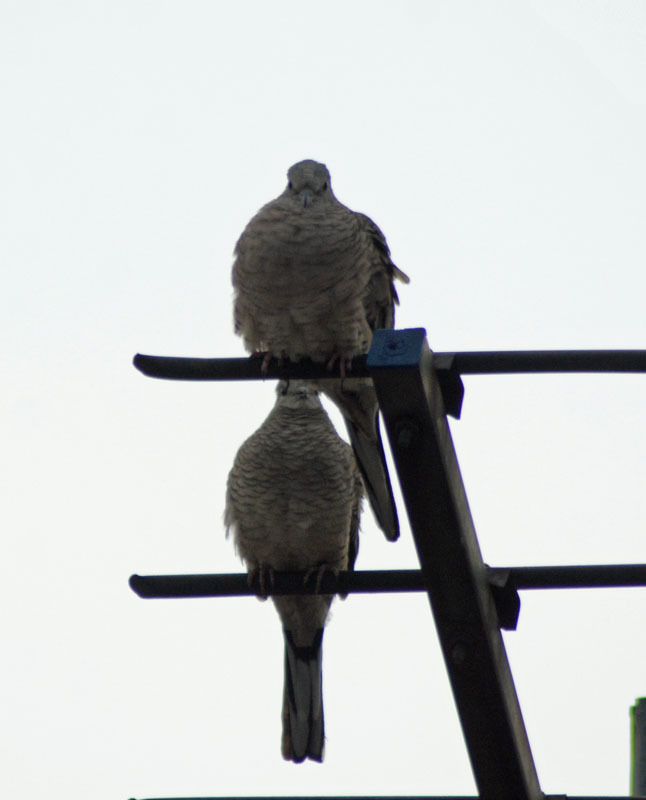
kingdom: Animalia
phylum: Chordata
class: Aves
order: Columbiformes
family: Columbidae
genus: Columbina
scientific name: Columbina inca
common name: Inca dove
